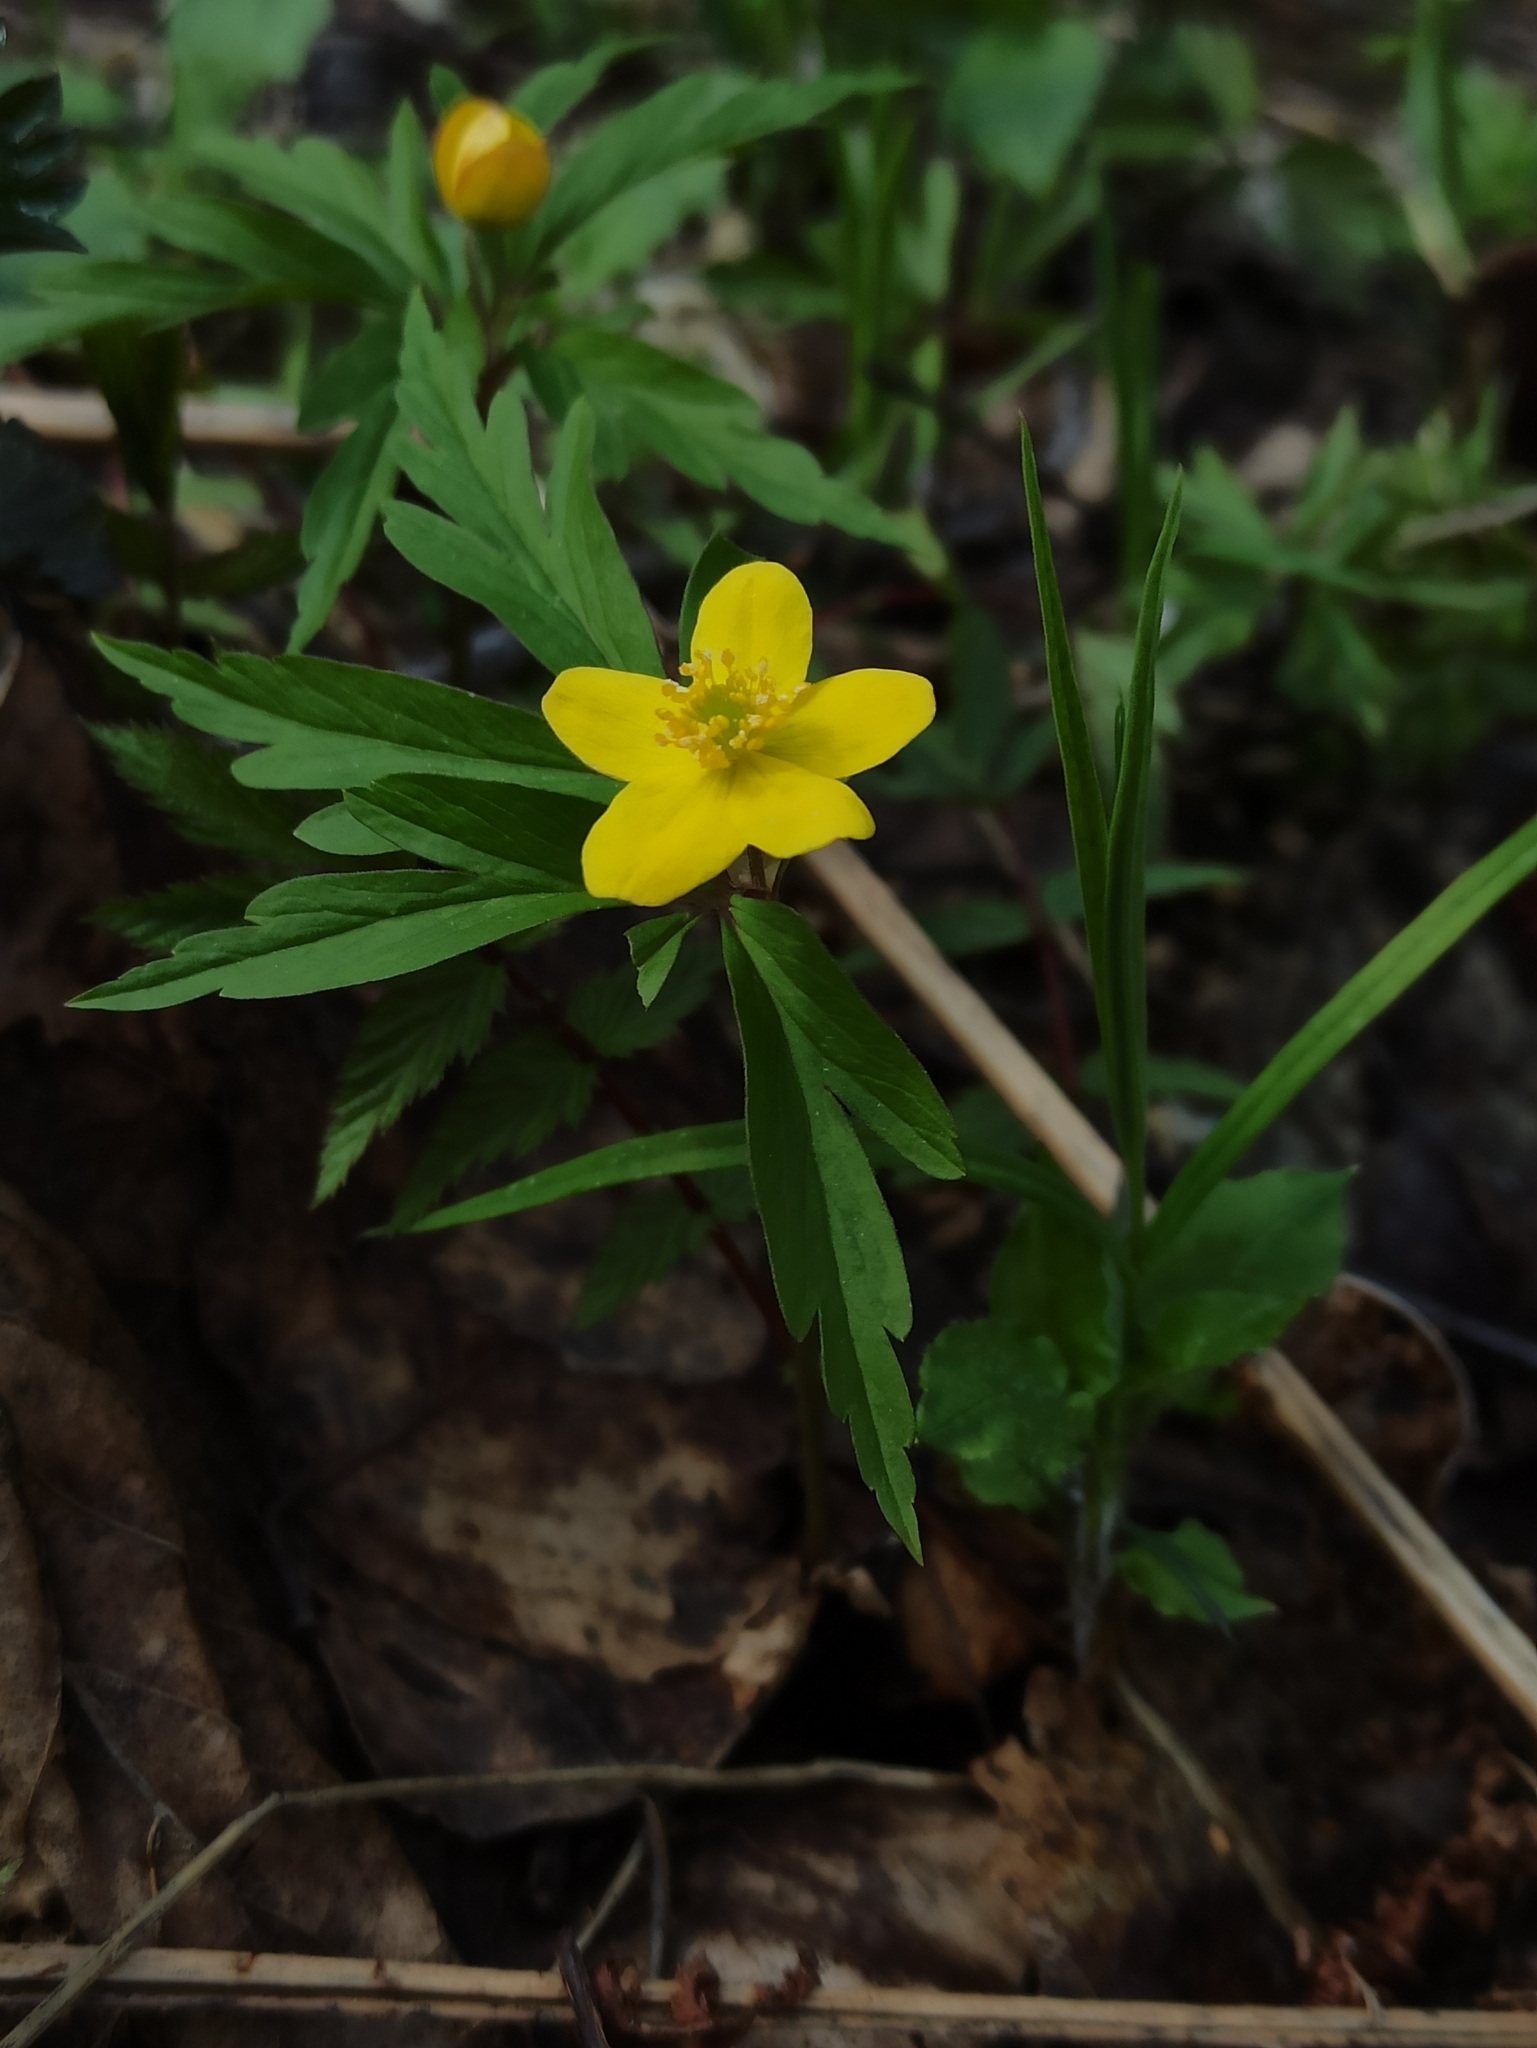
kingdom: Plantae
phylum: Tracheophyta
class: Magnoliopsida
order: Ranunculales
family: Ranunculaceae
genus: Anemone
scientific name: Anemone ranunculoides
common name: Yellow anemone
